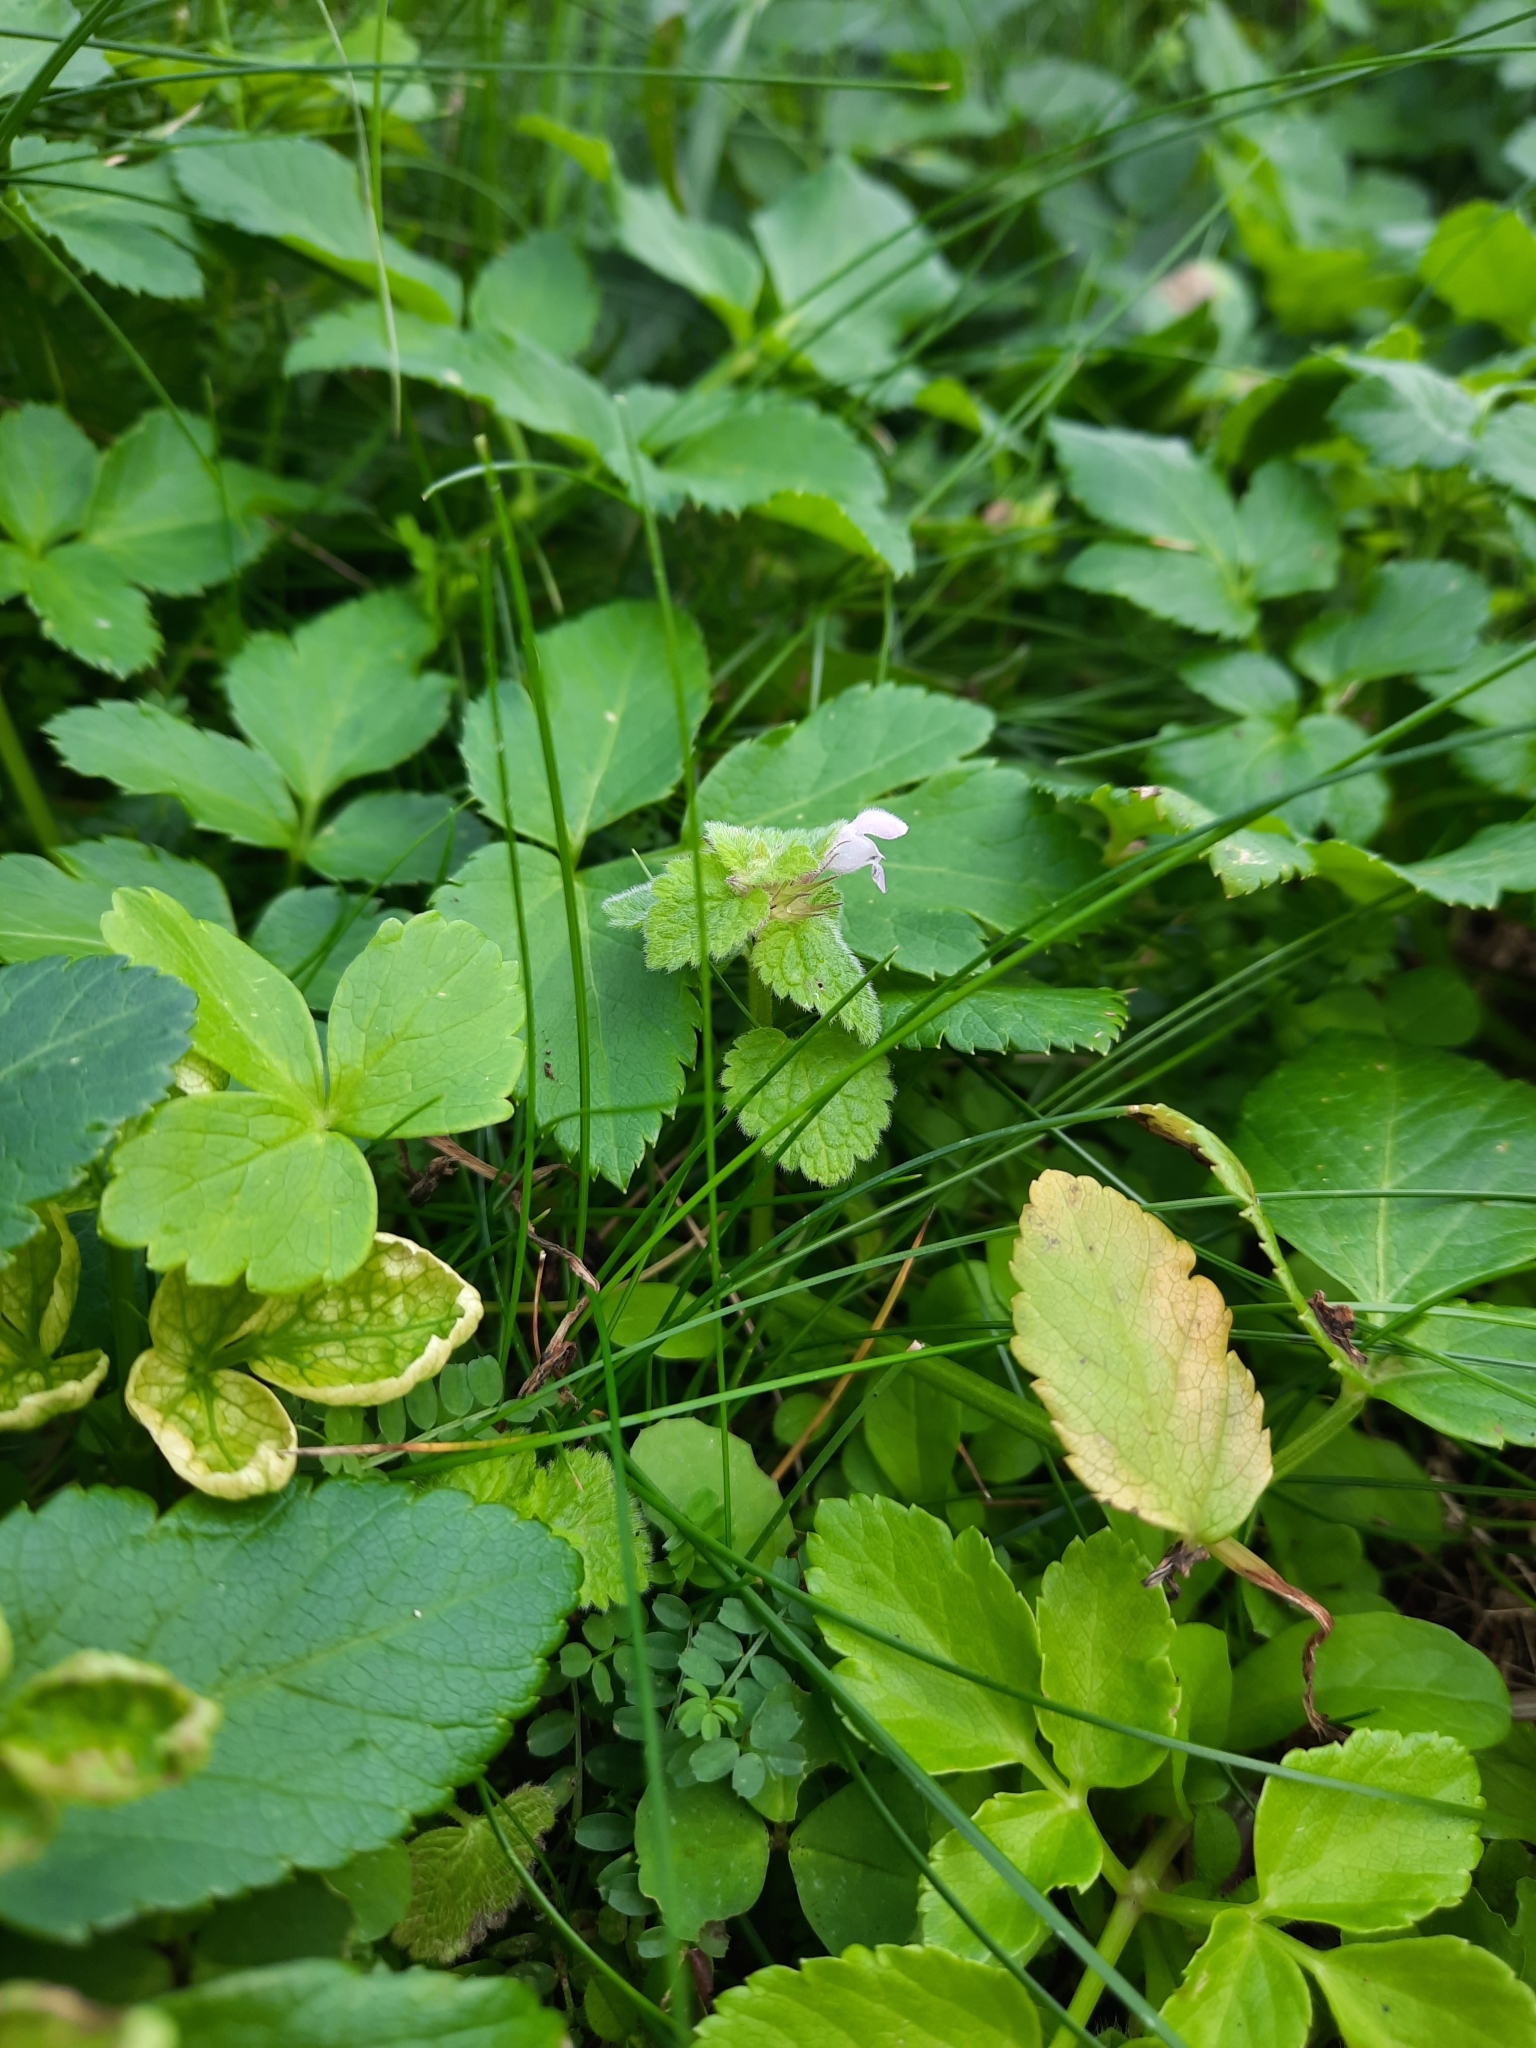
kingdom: Plantae
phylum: Tracheophyta
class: Magnoliopsida
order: Lamiales
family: Lamiaceae
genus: Lamium
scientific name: Lamium purpureum
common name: Red dead-nettle
